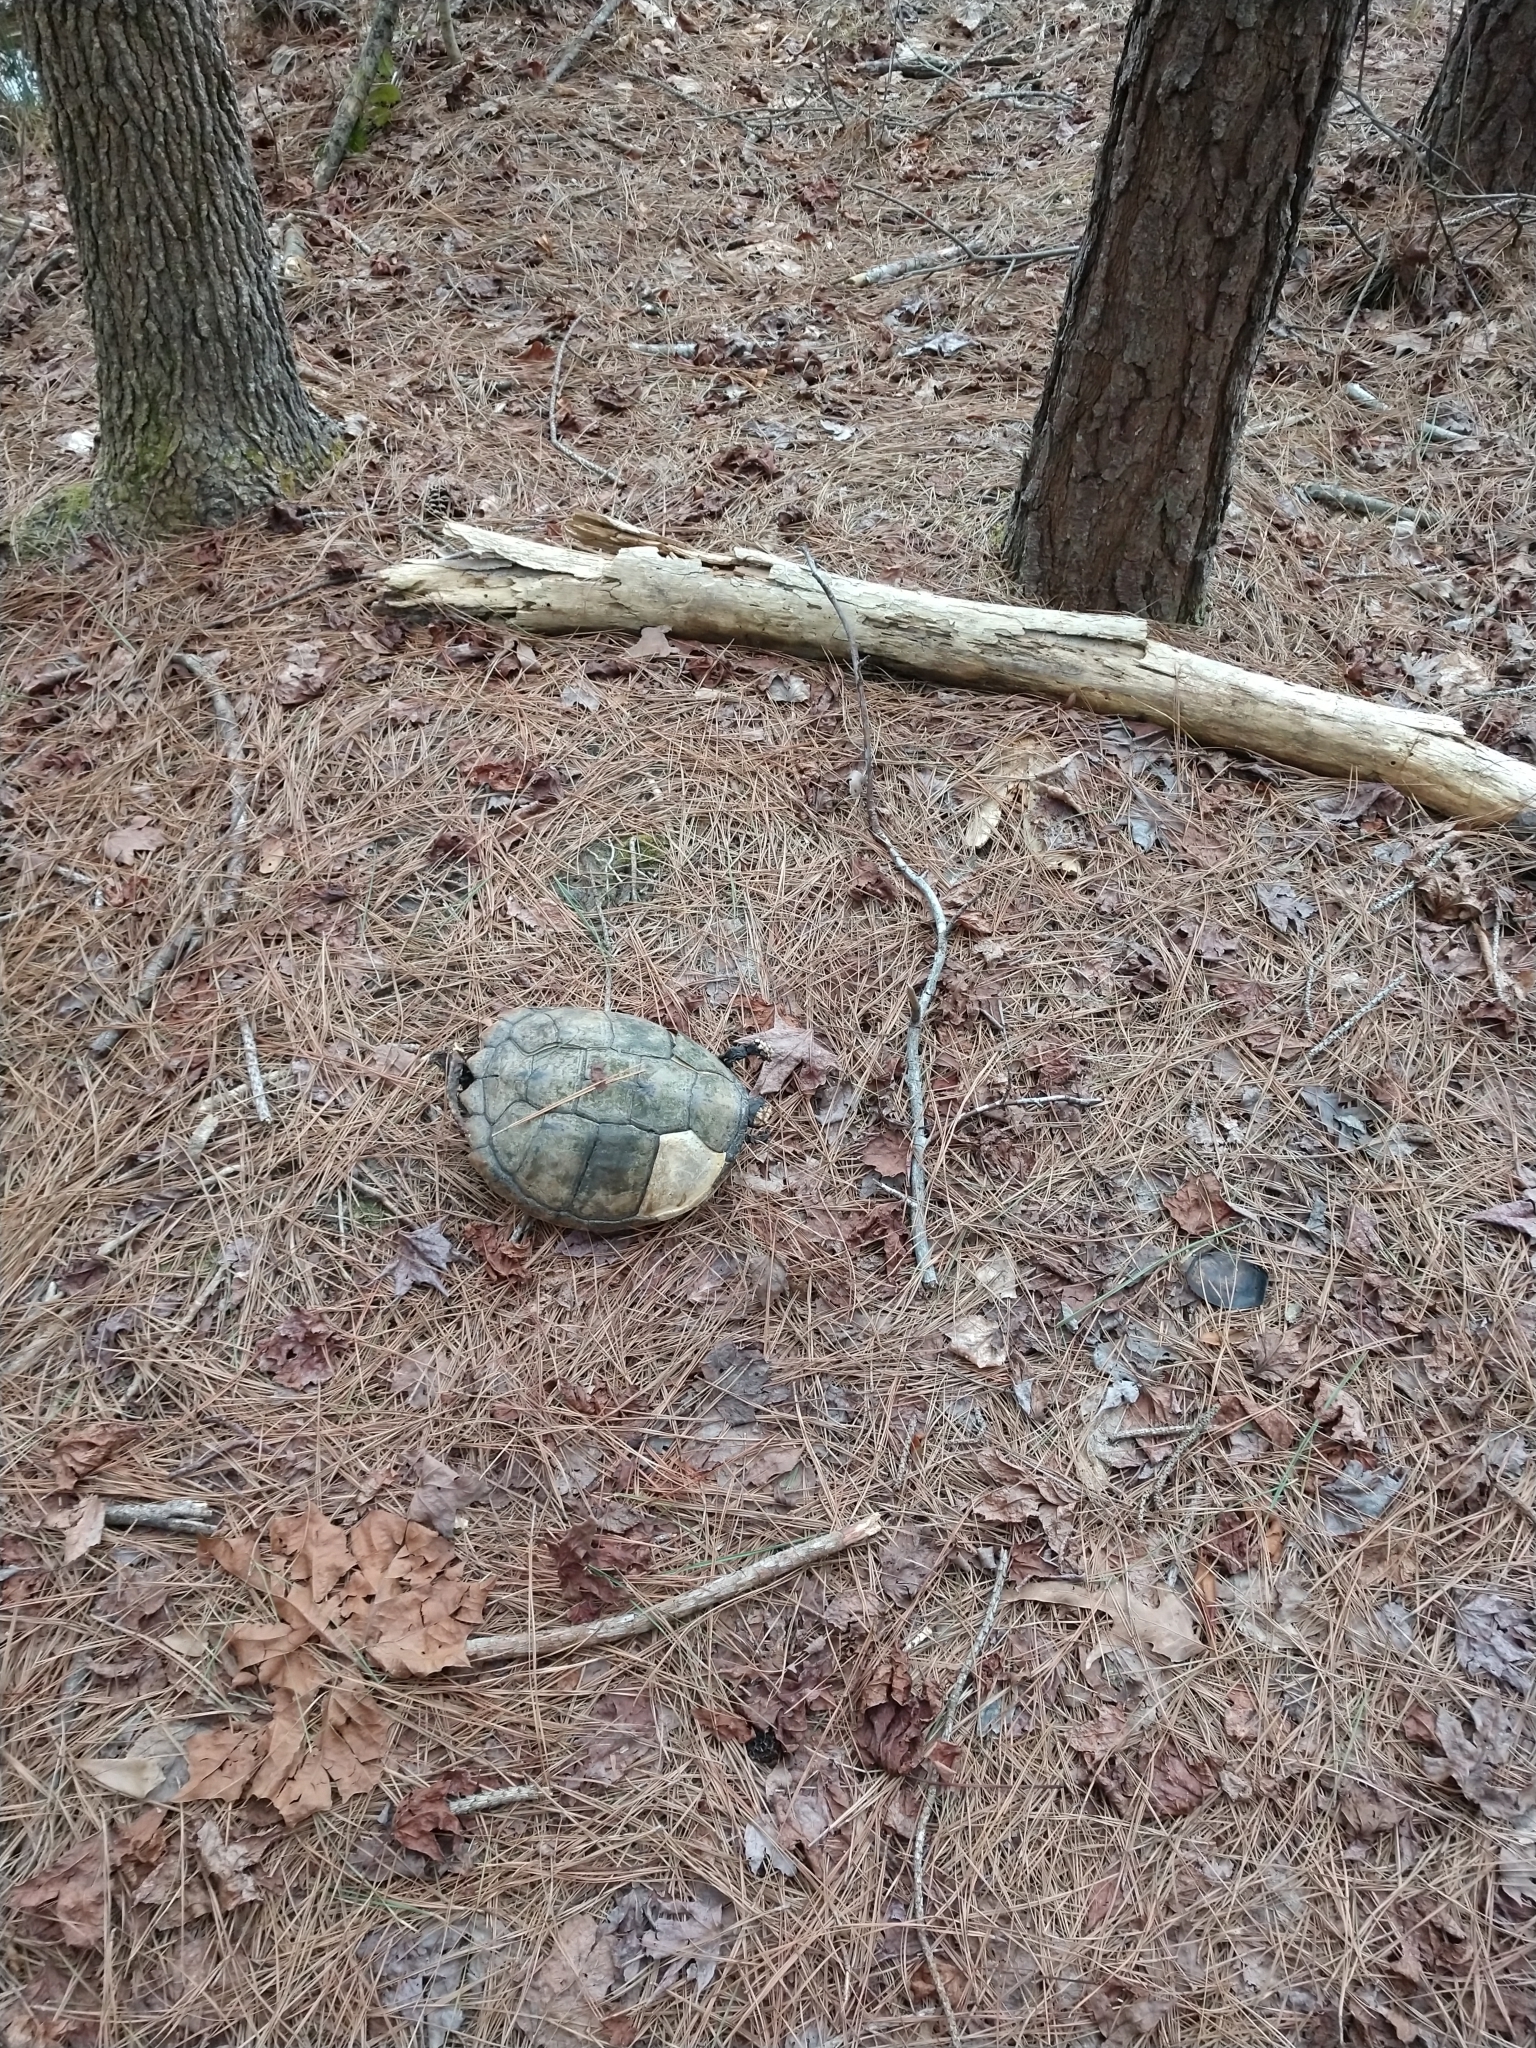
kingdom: Animalia
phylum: Chordata
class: Testudines
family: Chelydridae
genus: Chelydra
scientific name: Chelydra serpentina
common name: Common snapping turtle
